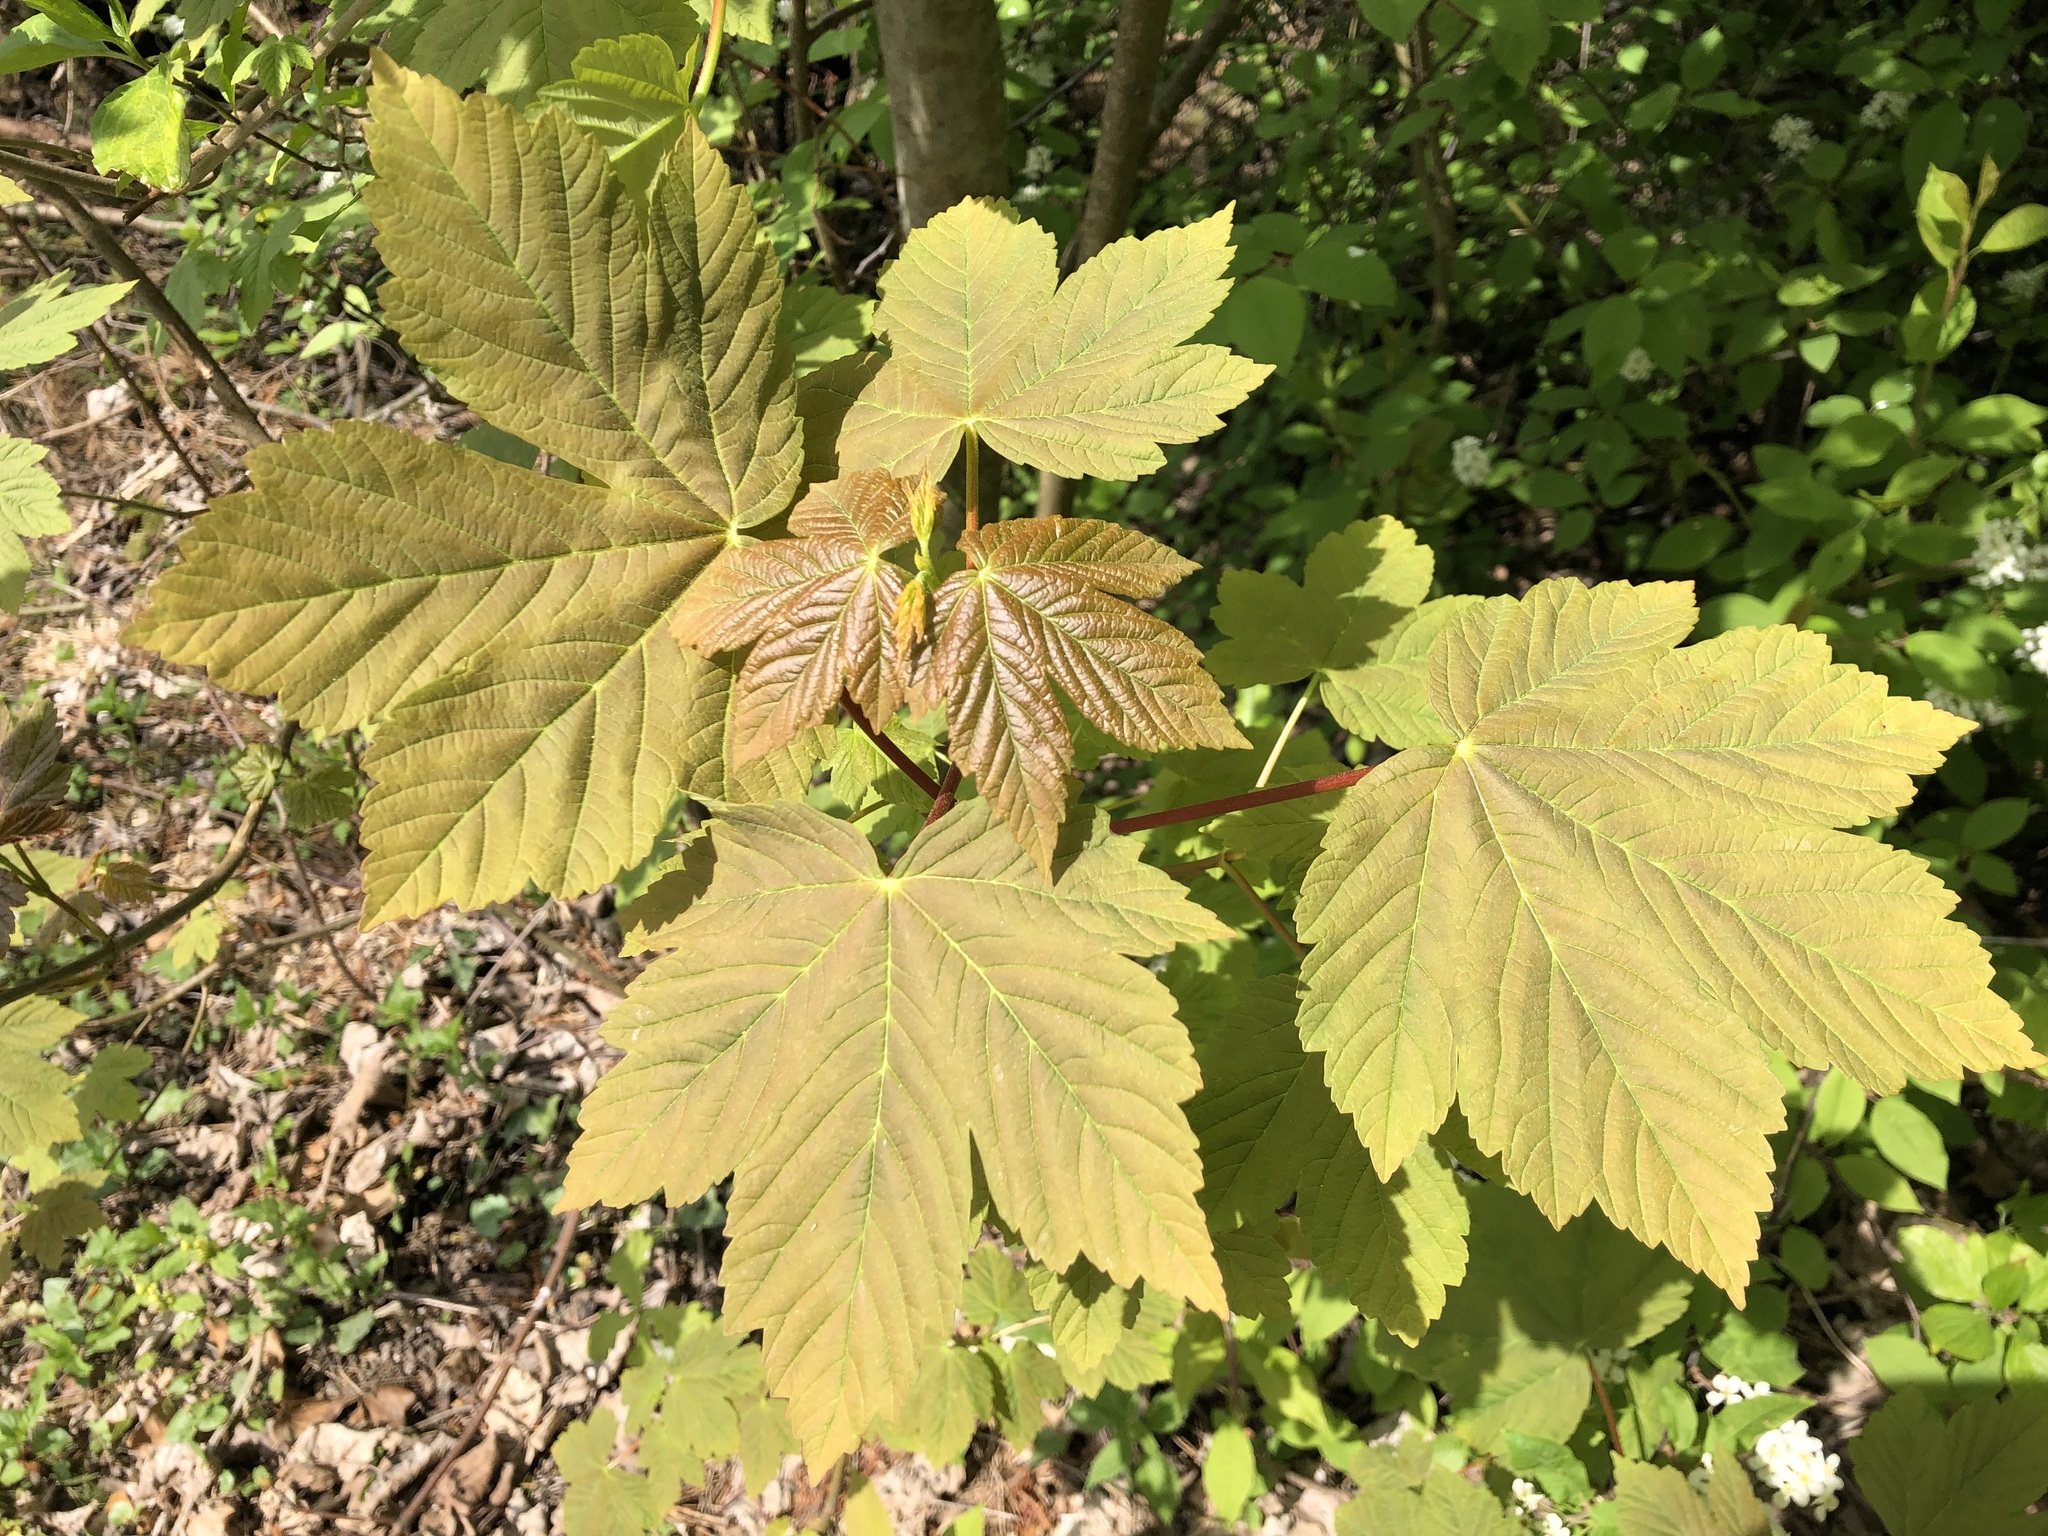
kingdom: Plantae
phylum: Tracheophyta
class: Magnoliopsida
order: Sapindales
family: Sapindaceae
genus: Acer
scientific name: Acer pseudoplatanus
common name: Sycamore
